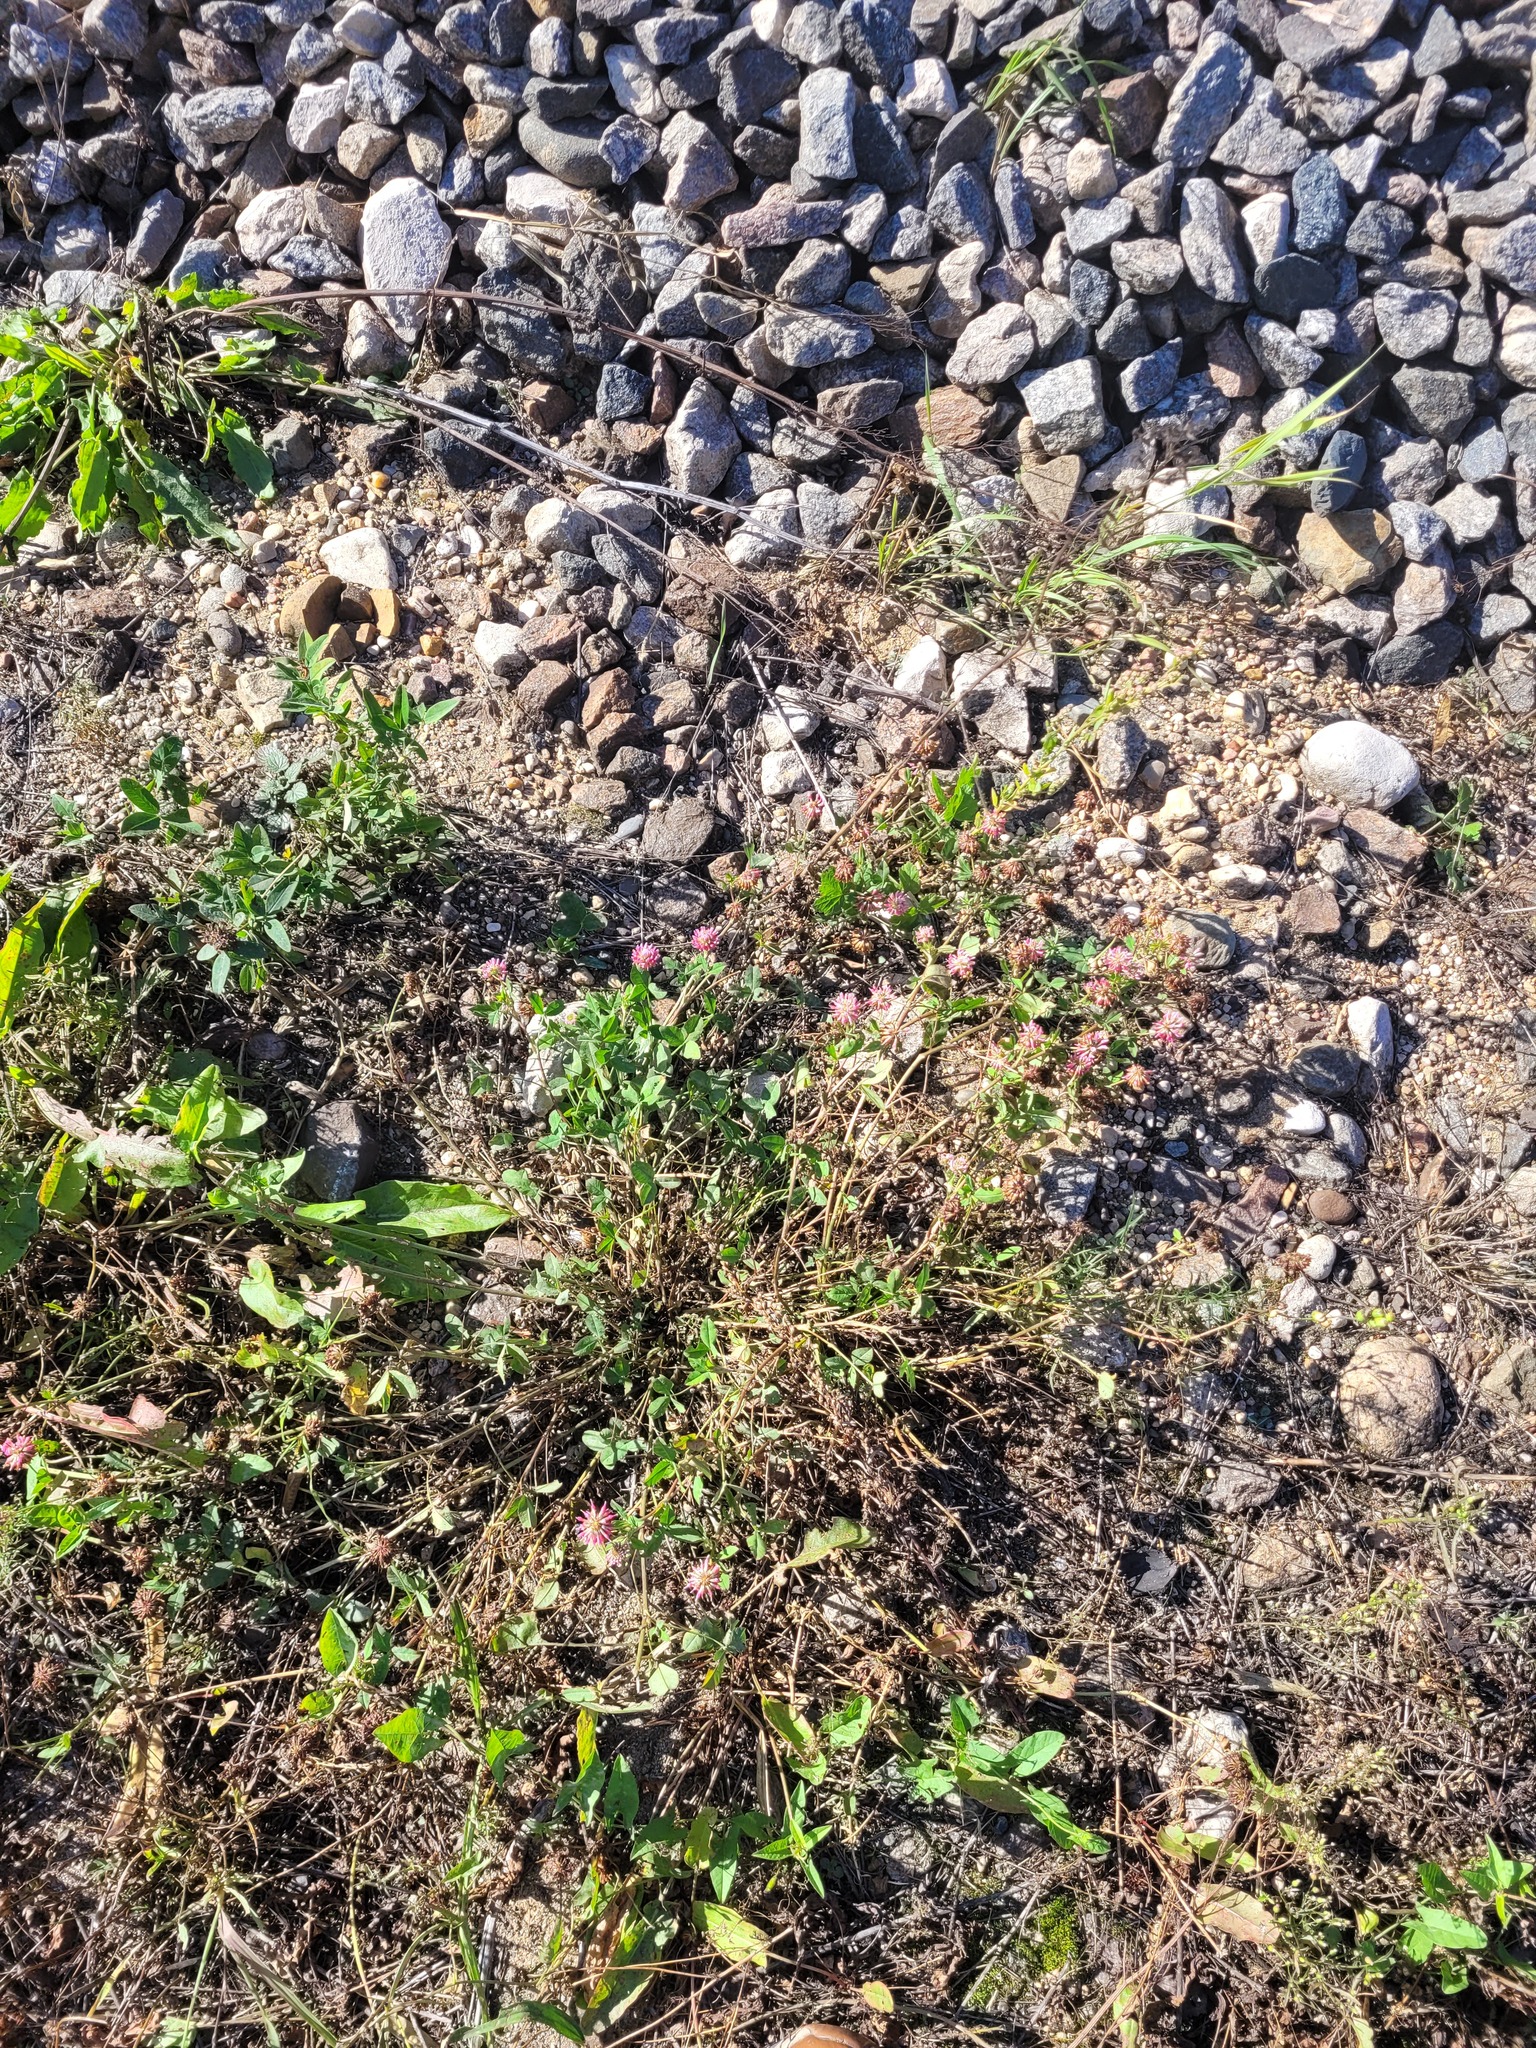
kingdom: Plantae
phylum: Tracheophyta
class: Magnoliopsida
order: Fabales
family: Fabaceae
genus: Trifolium
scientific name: Trifolium hybridum
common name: Alsike clover
